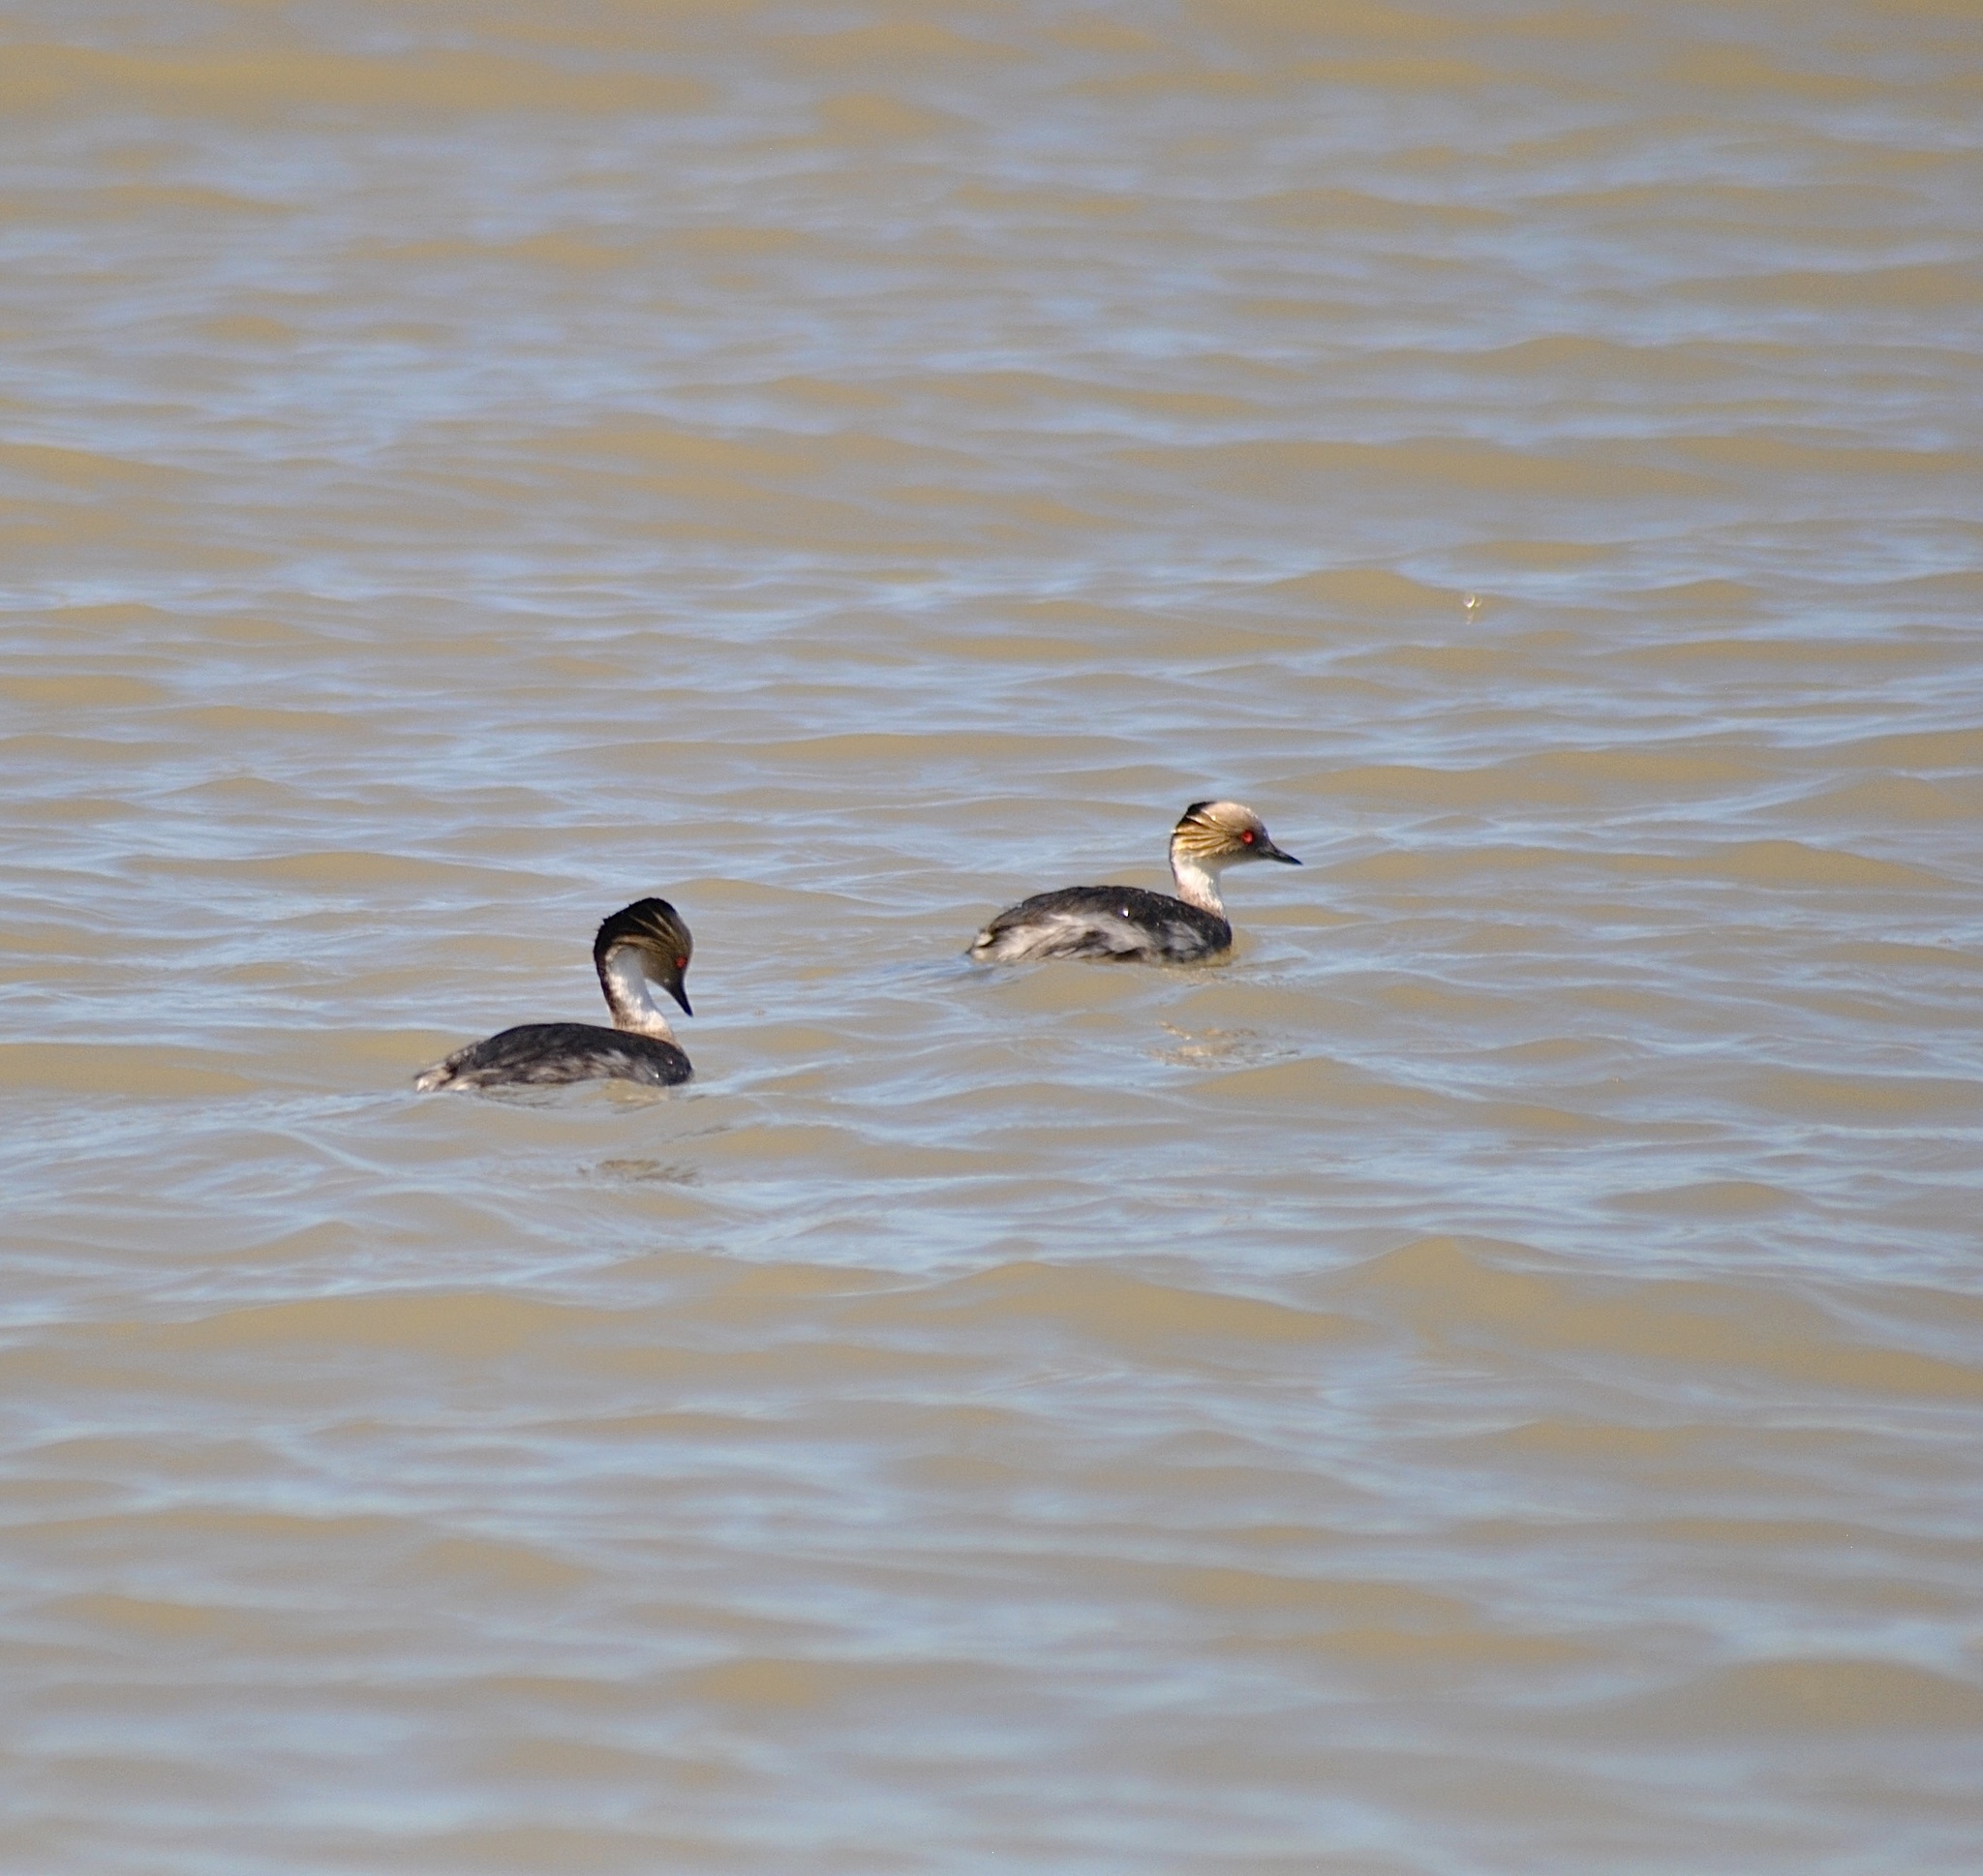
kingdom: Animalia
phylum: Chordata
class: Aves
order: Podicipediformes
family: Podicipedidae
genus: Podiceps
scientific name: Podiceps occipitalis
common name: Silvery grebe
